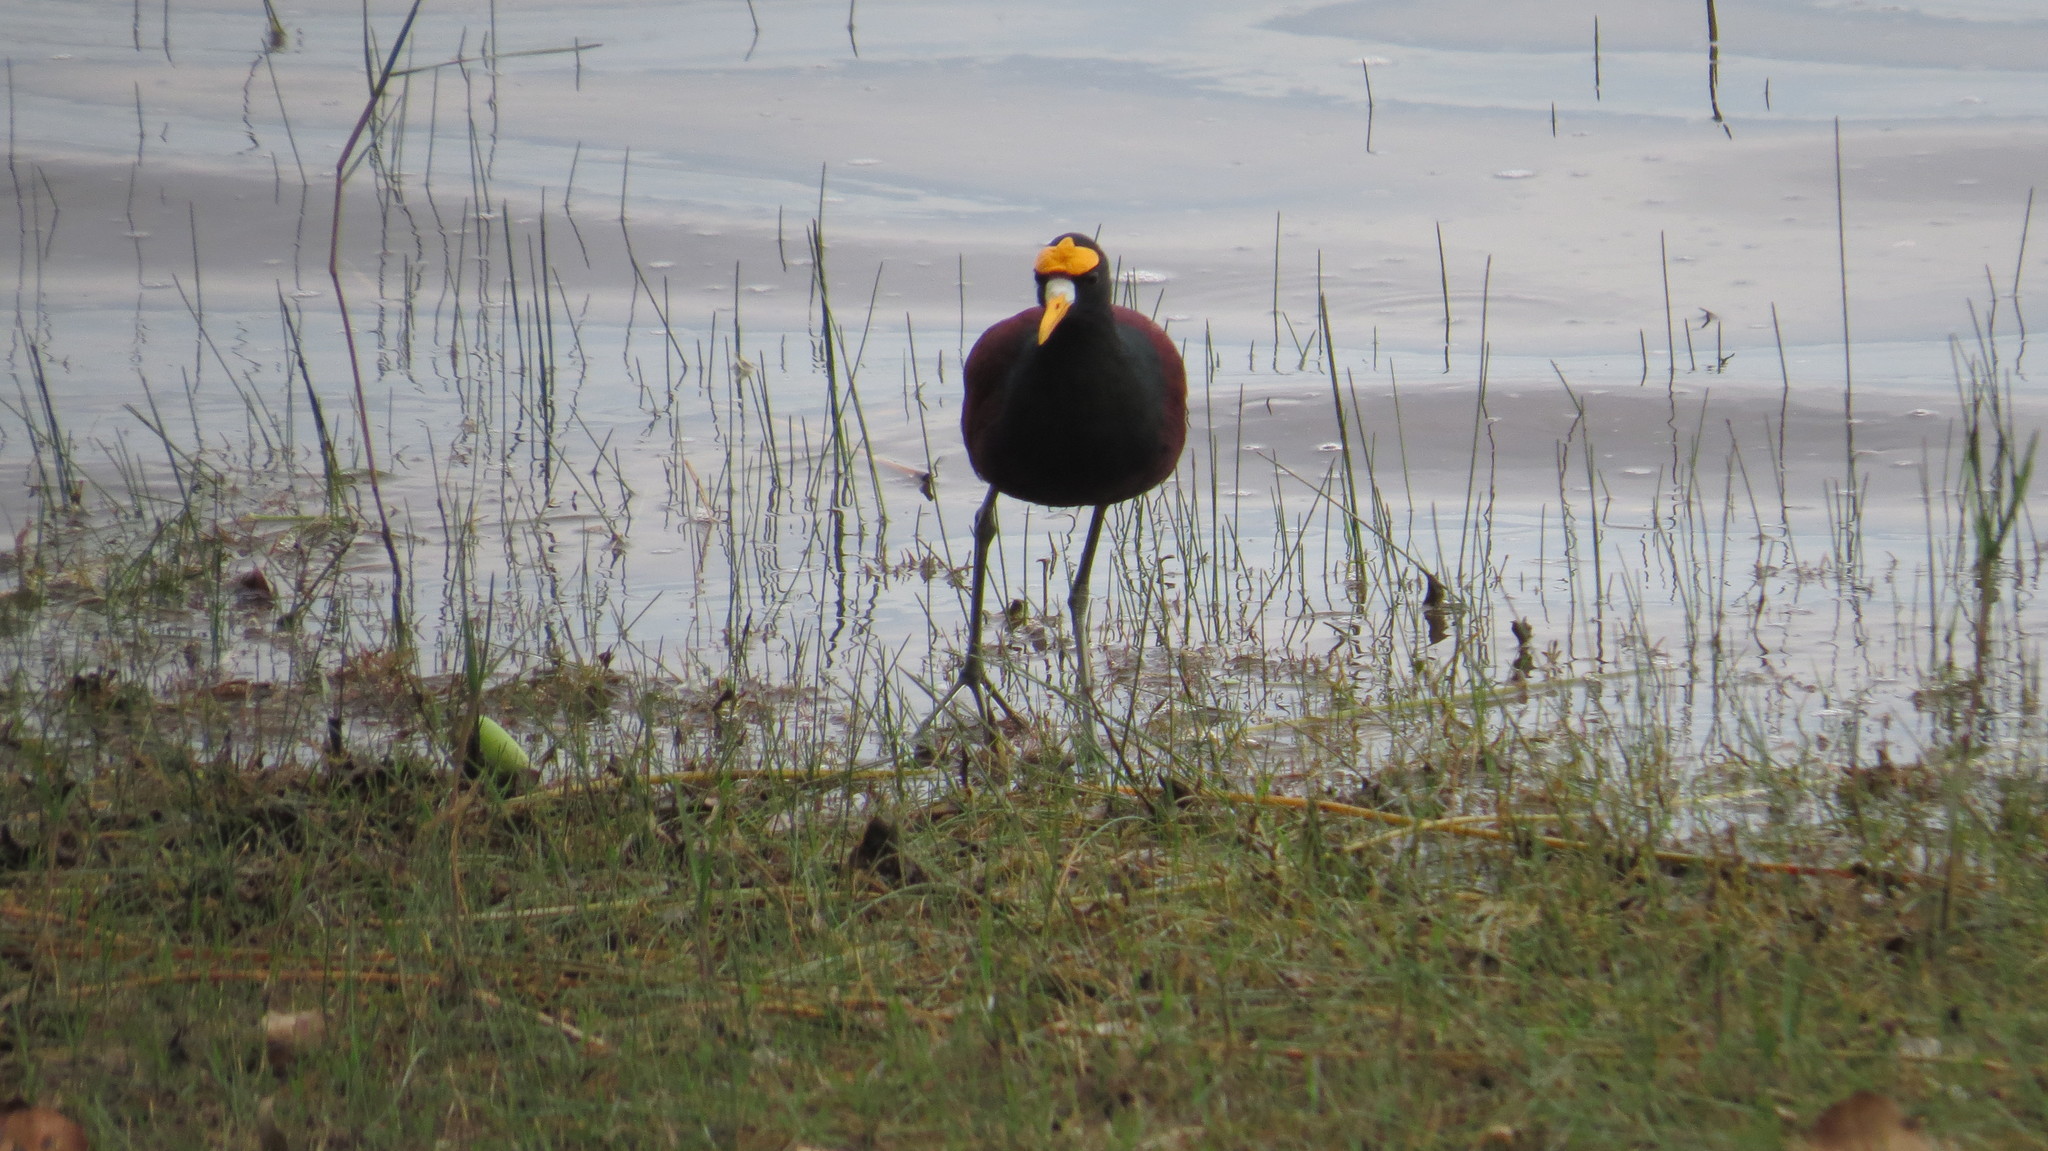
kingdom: Animalia
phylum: Chordata
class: Aves
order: Charadriiformes
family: Jacanidae
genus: Jacana
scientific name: Jacana spinosa
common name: Northern jacana
